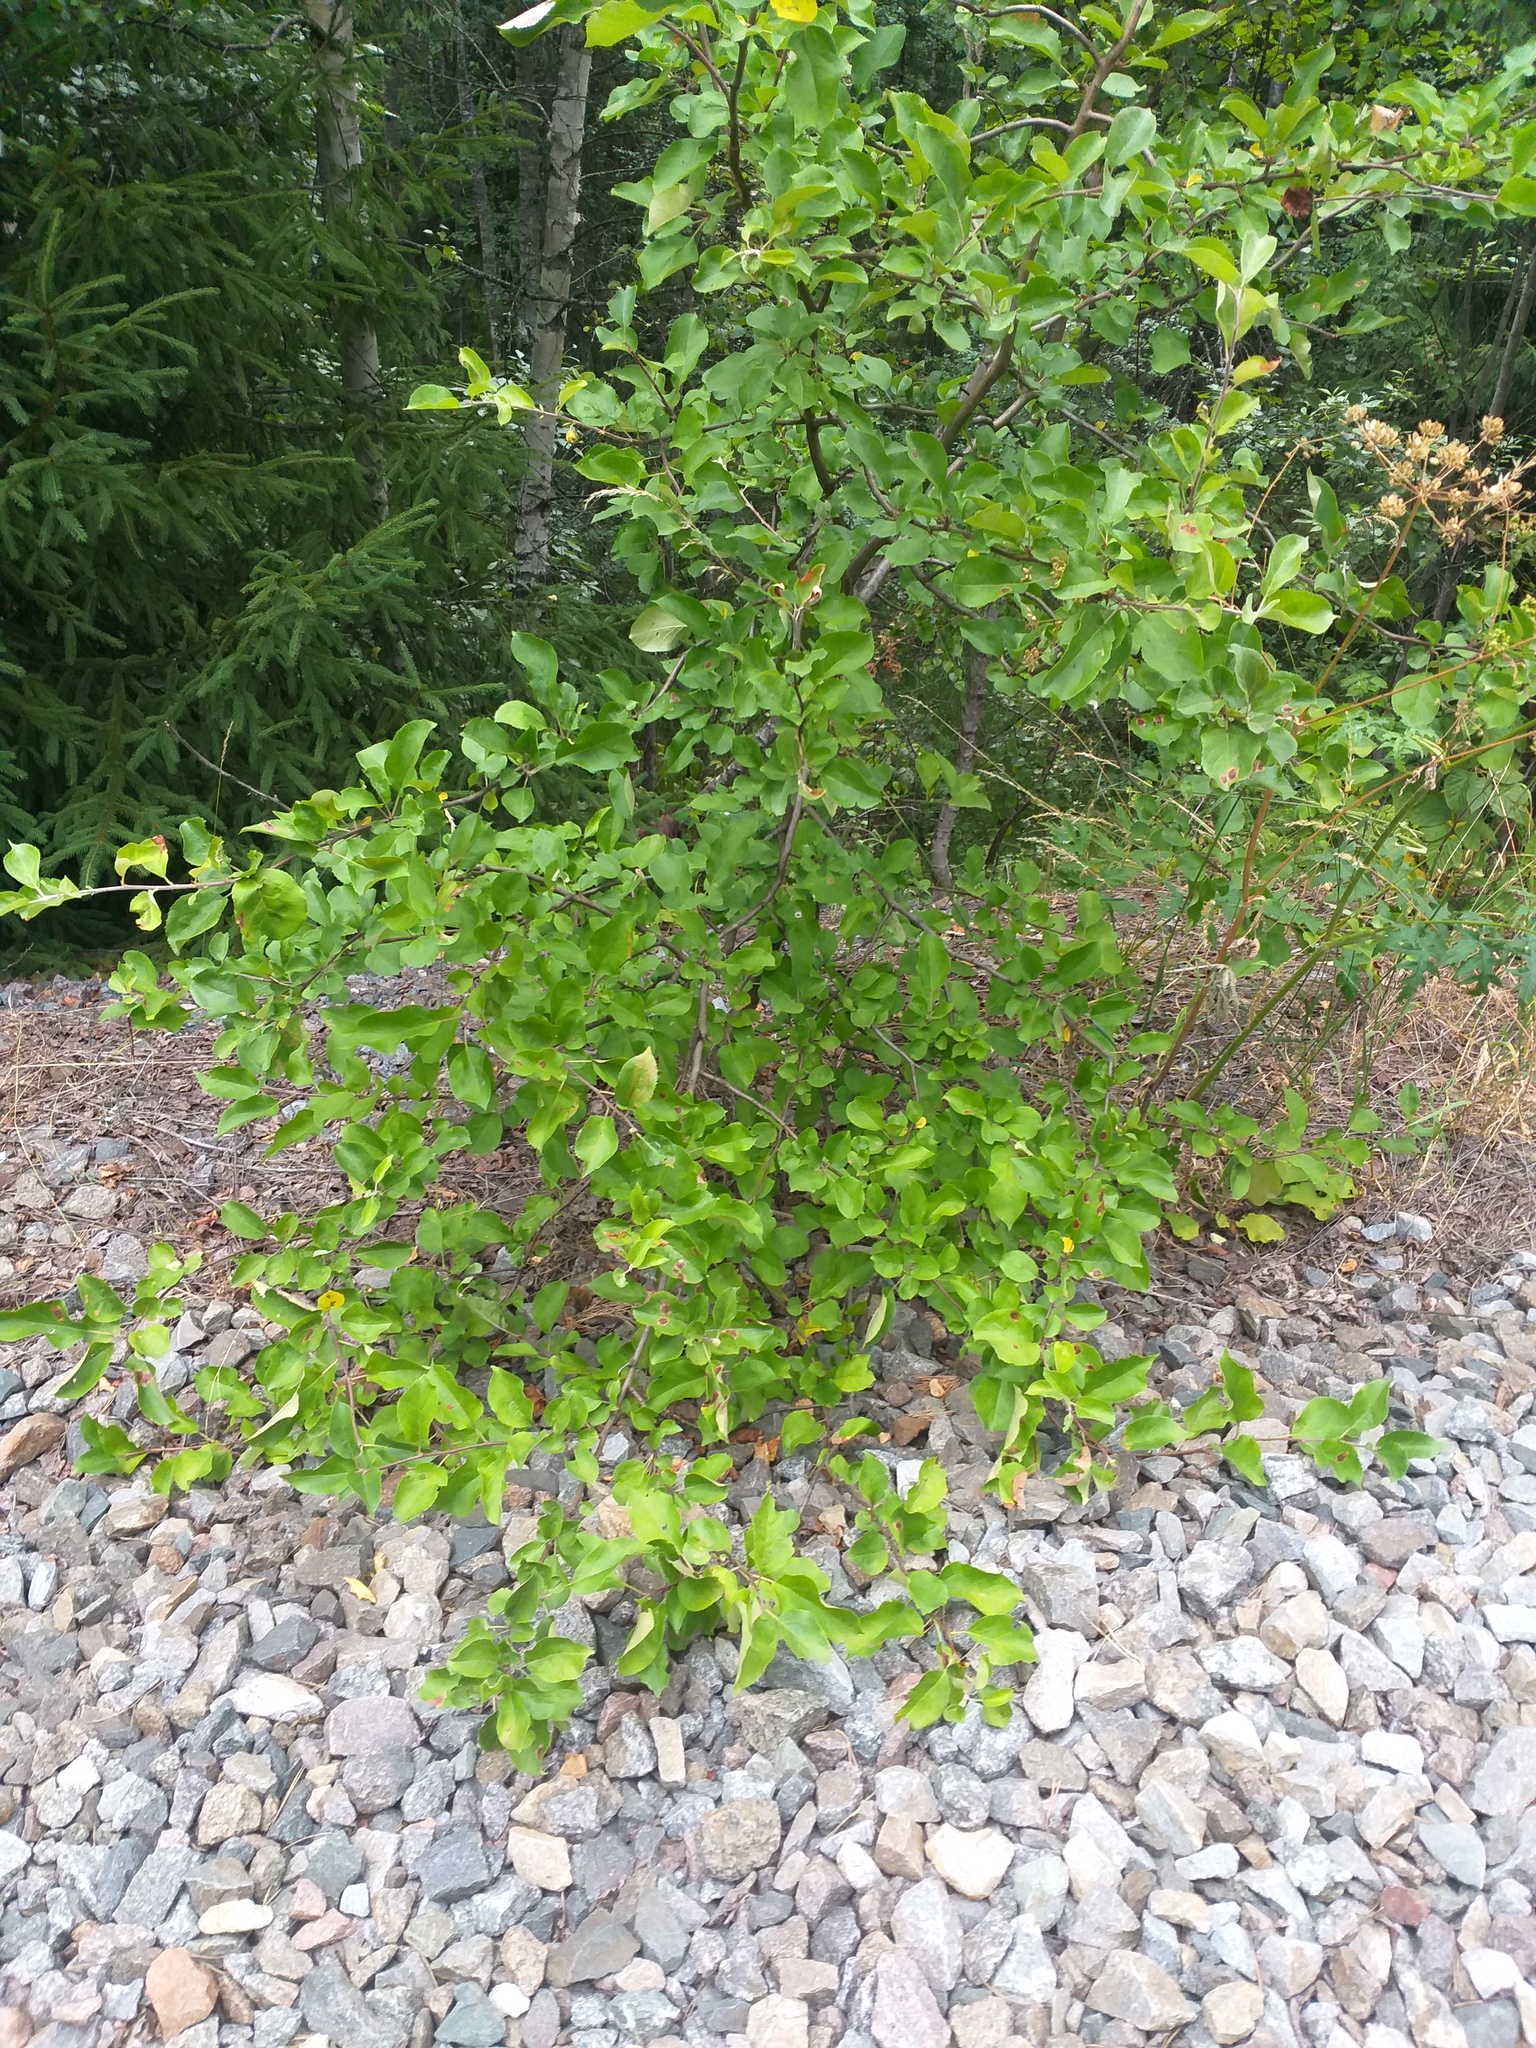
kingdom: Plantae
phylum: Tracheophyta
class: Magnoliopsida
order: Rosales
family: Rosaceae
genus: Malus
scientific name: Malus domestica
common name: Apple
